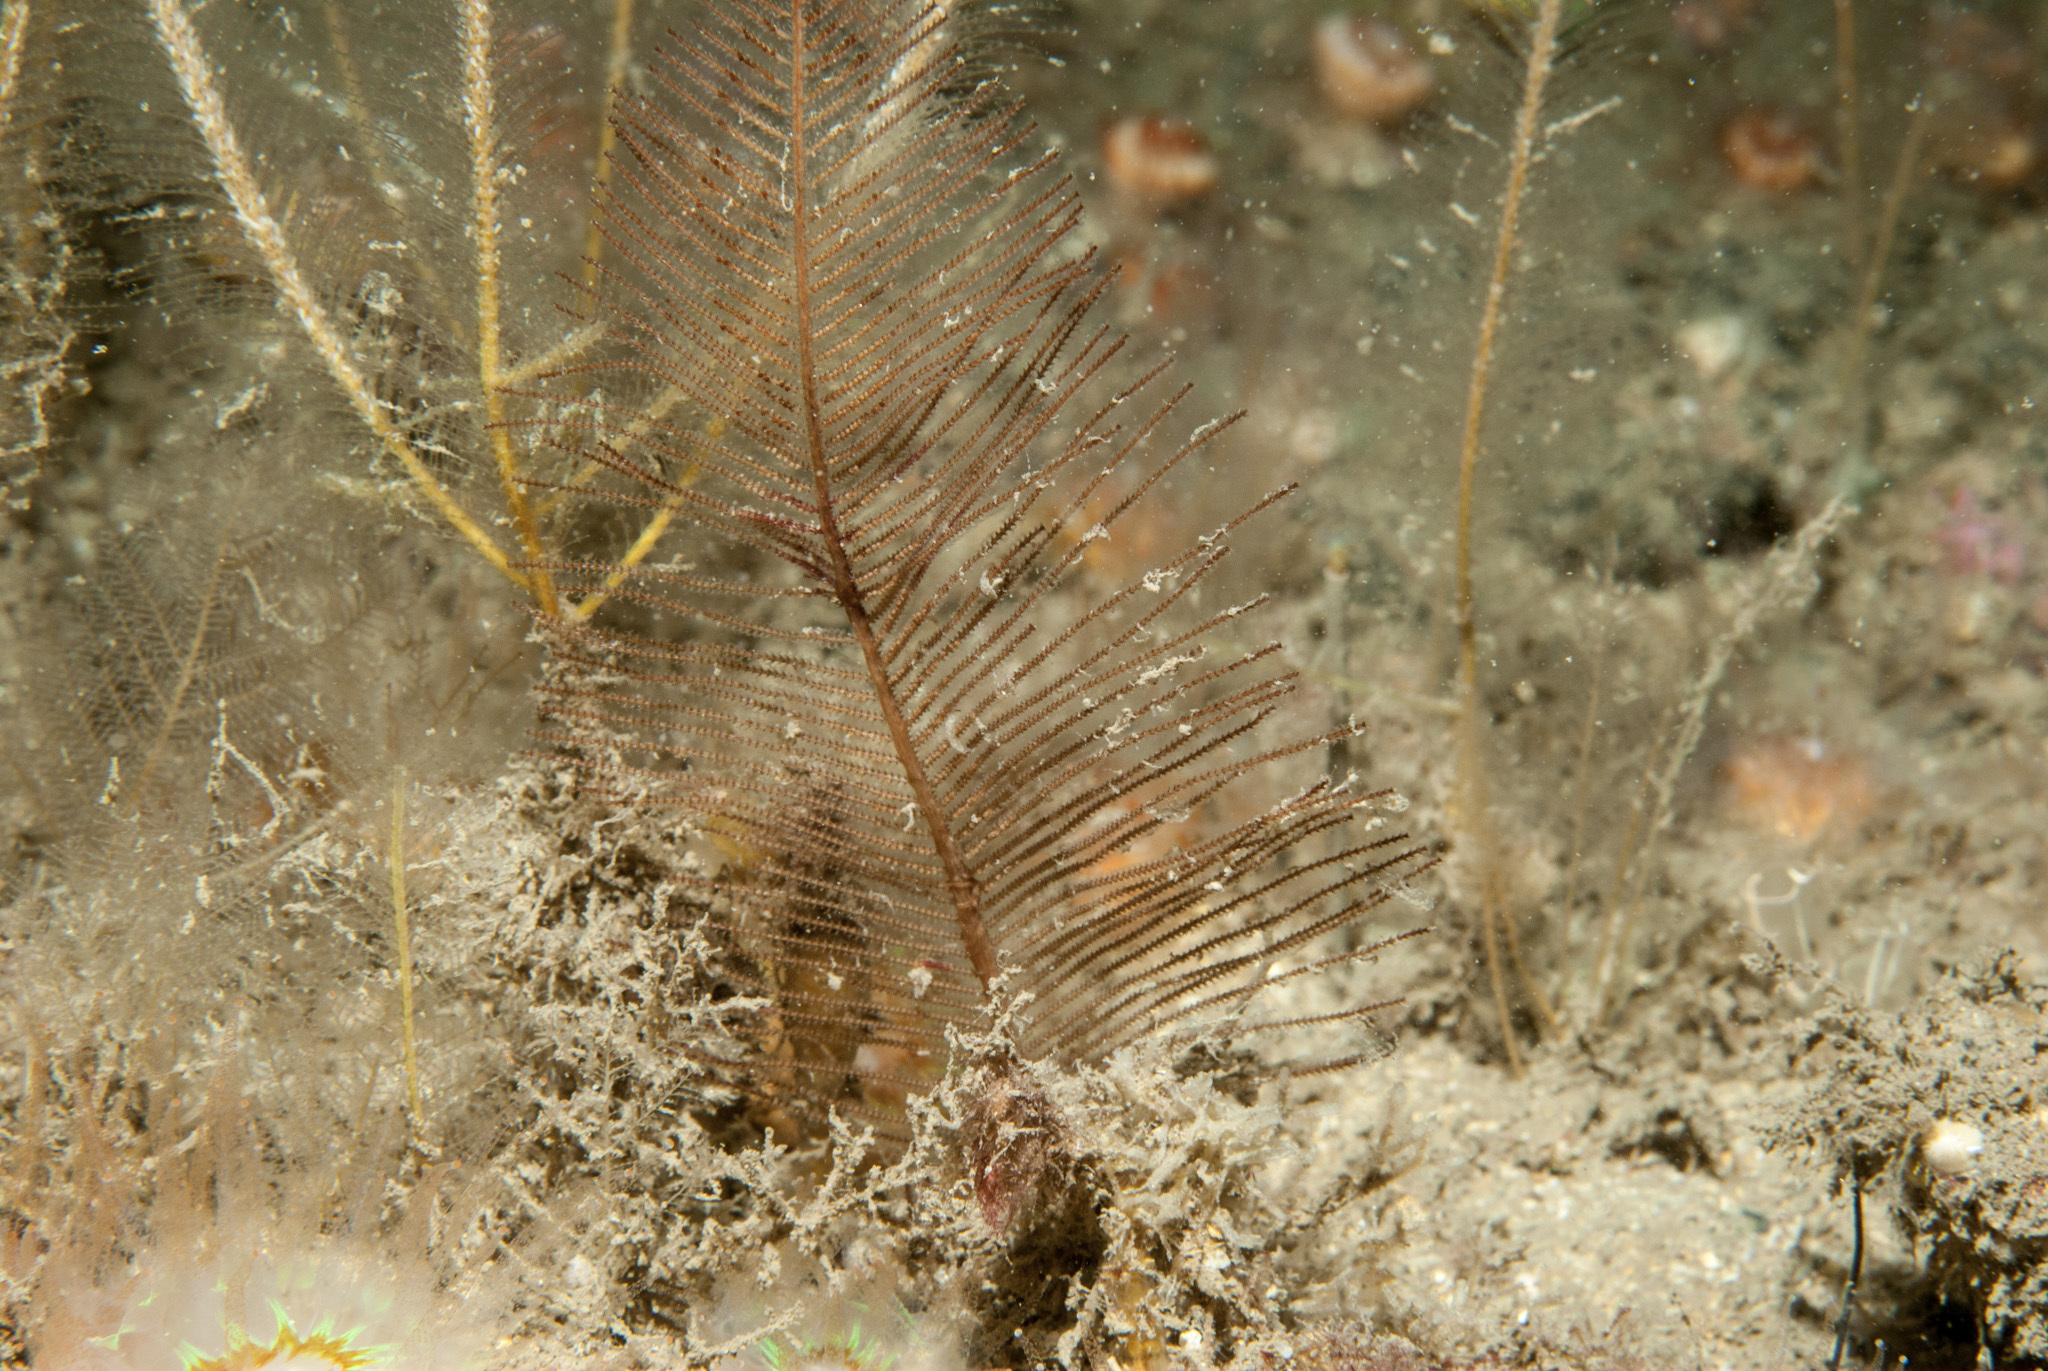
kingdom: Animalia
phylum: Cnidaria
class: Hydrozoa
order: Leptothecata
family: Sertulariidae
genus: Diphasia
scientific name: Diphasia alata
